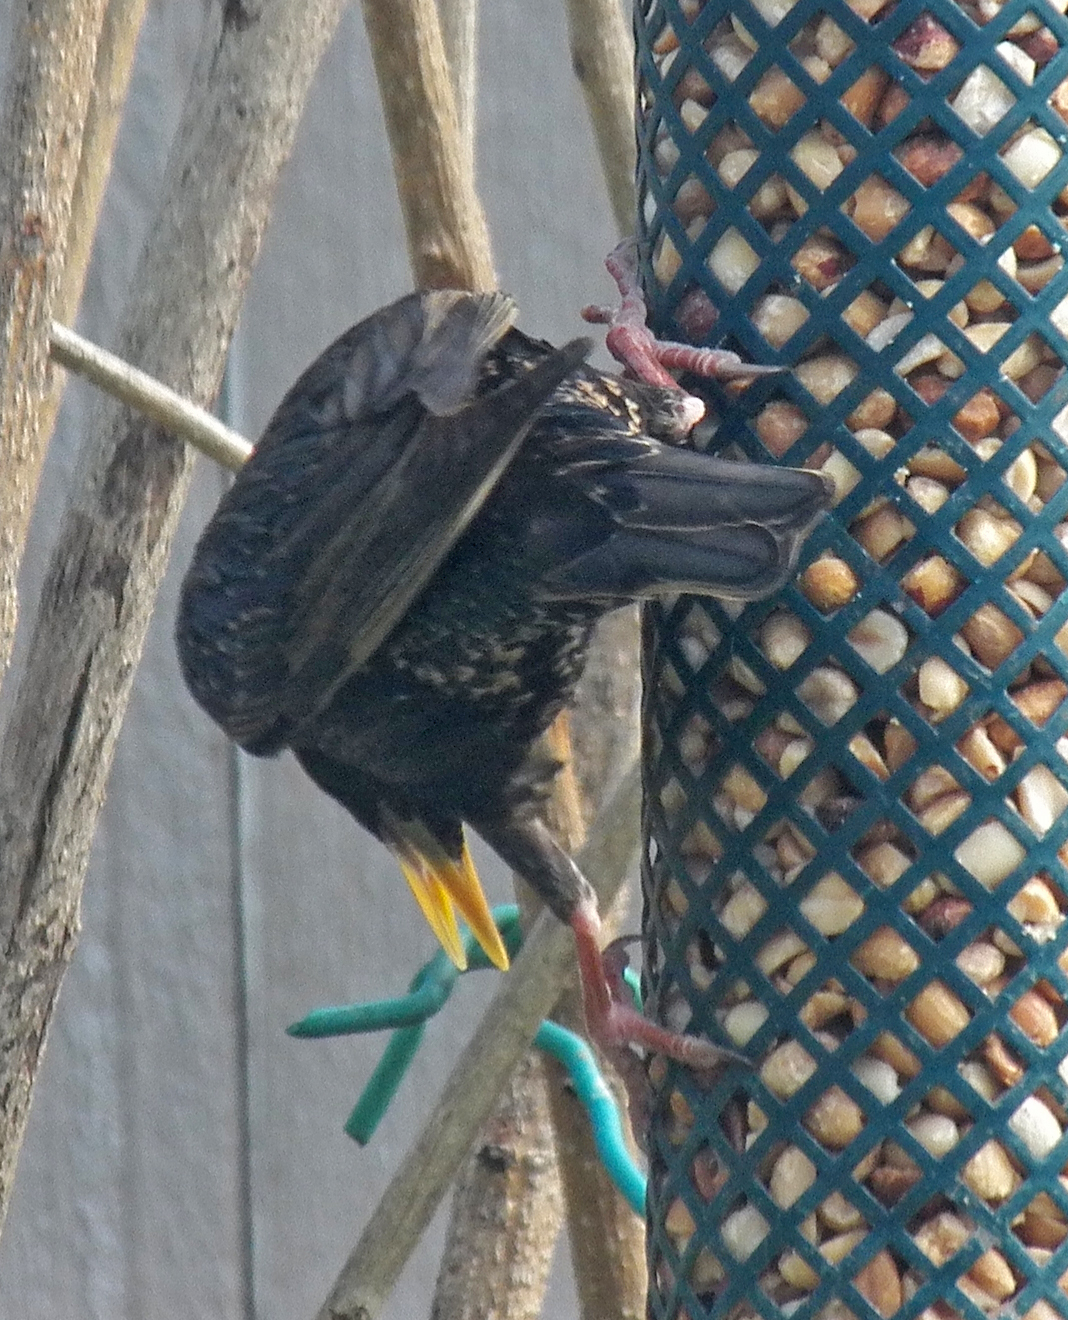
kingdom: Animalia
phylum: Chordata
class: Aves
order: Passeriformes
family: Sturnidae
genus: Sturnus
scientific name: Sturnus vulgaris
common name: Common starling
